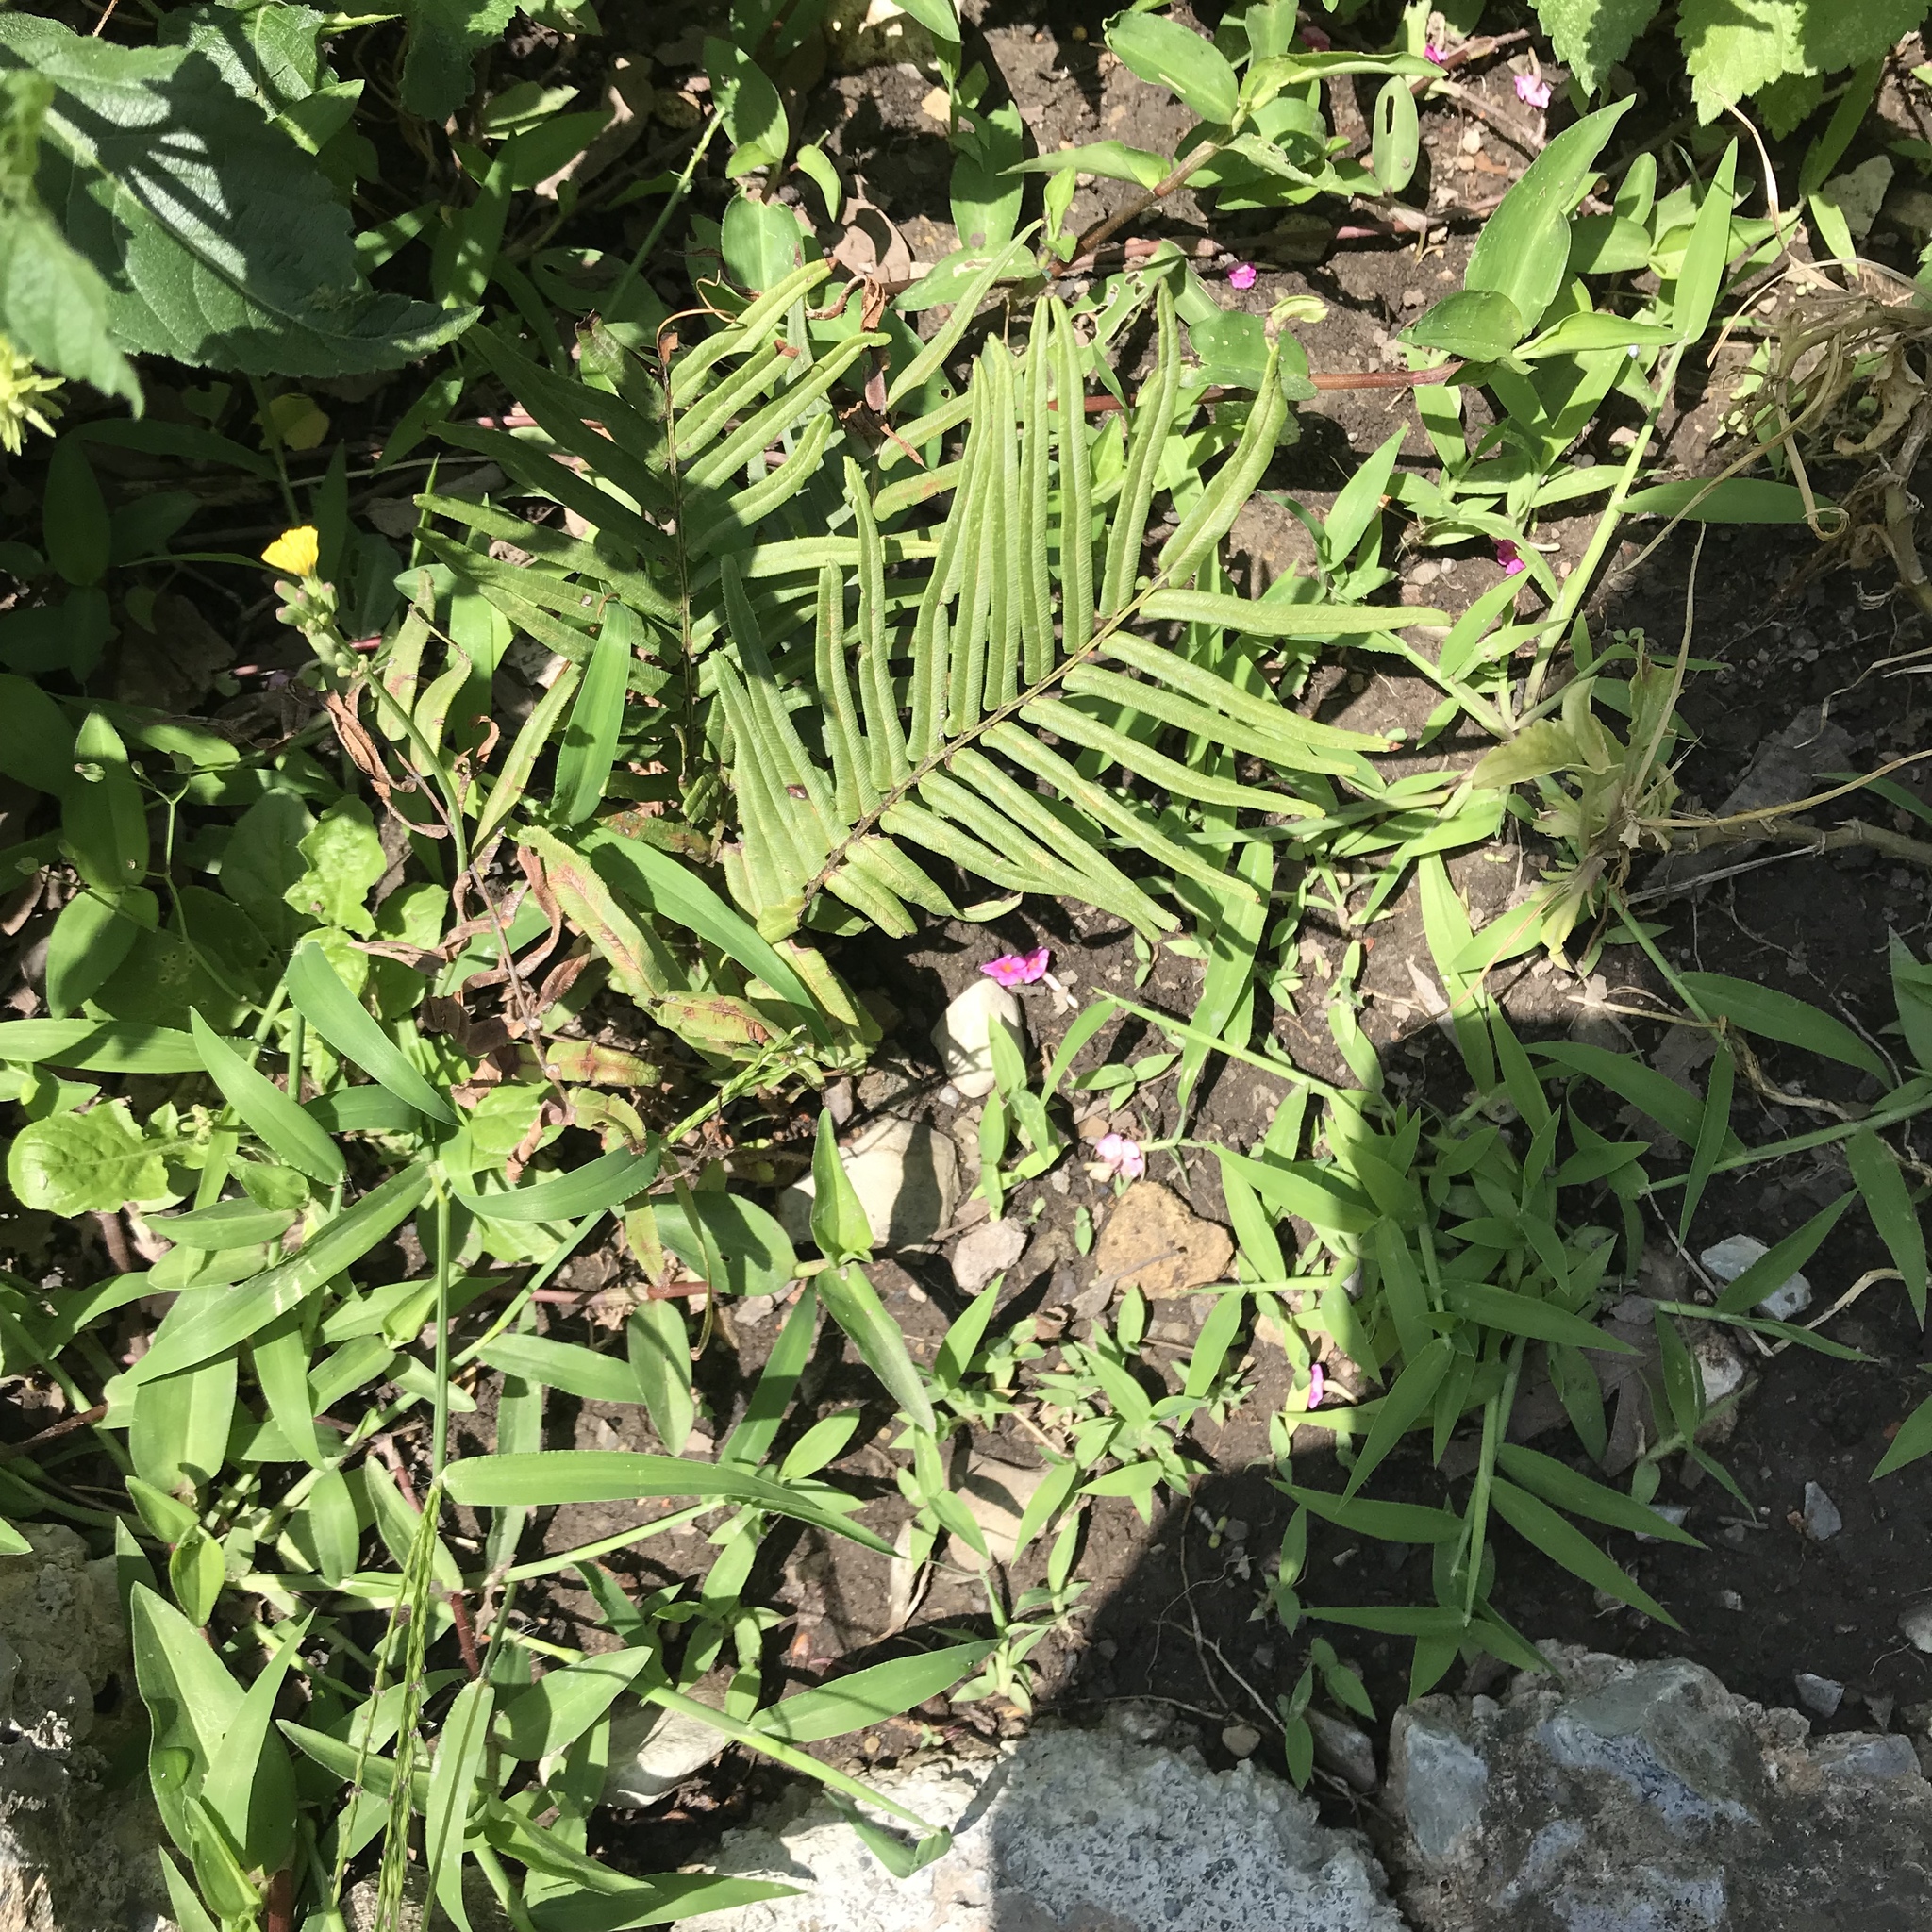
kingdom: Plantae
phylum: Tracheophyta
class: Polypodiopsida
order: Polypodiales
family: Pteridaceae
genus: Pteris
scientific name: Pteris vittata
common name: Ladder brake
